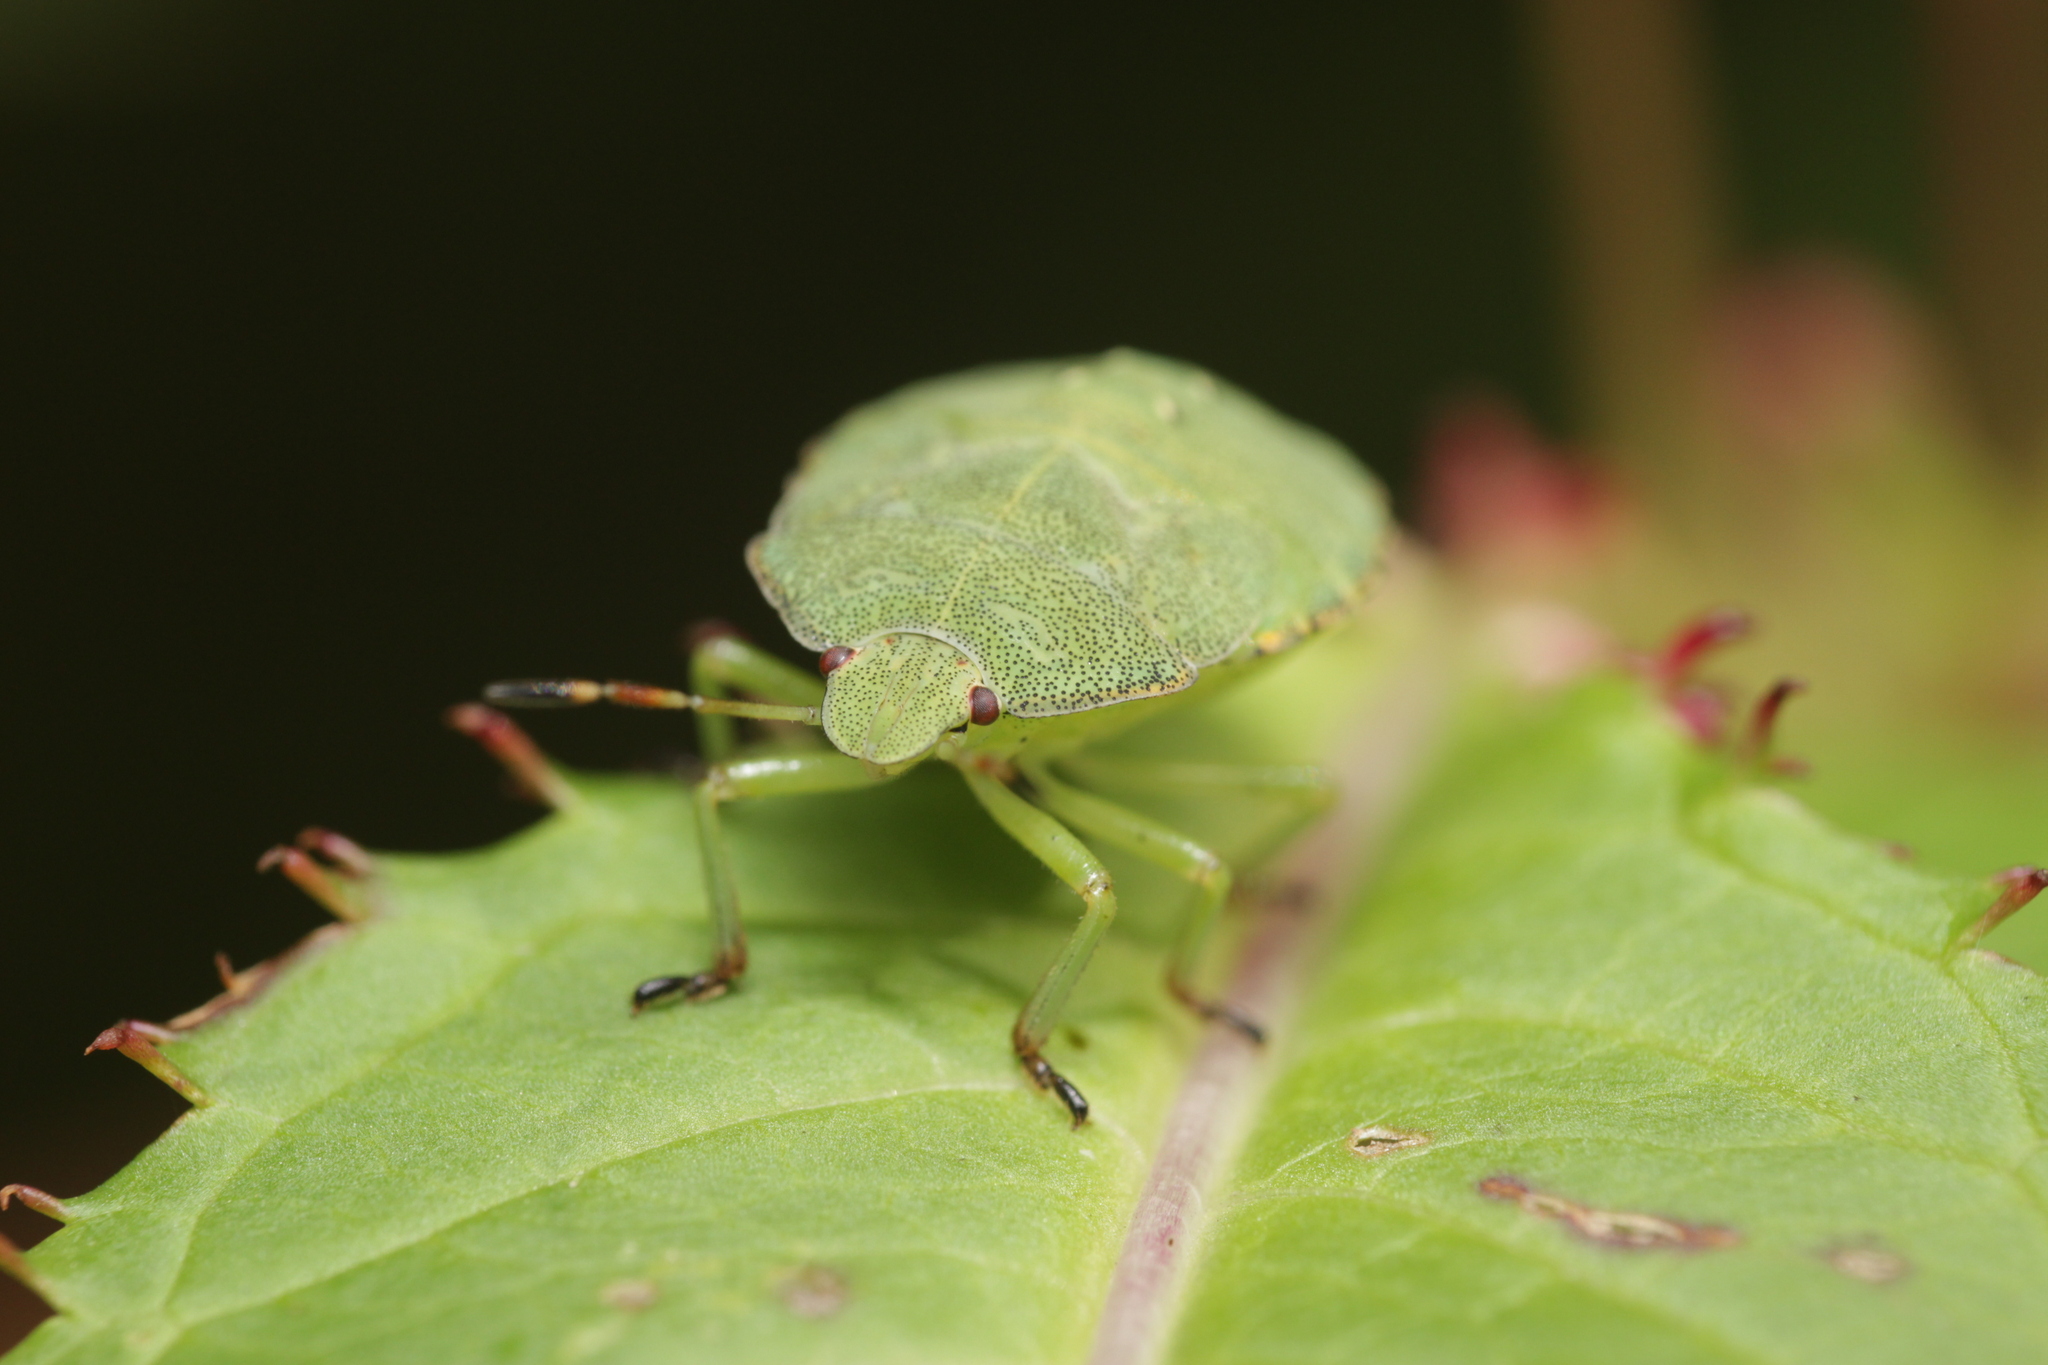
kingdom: Animalia
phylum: Arthropoda
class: Insecta
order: Hemiptera
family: Pentatomidae
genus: Palomena
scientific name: Palomena prasina
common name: Green shieldbug
